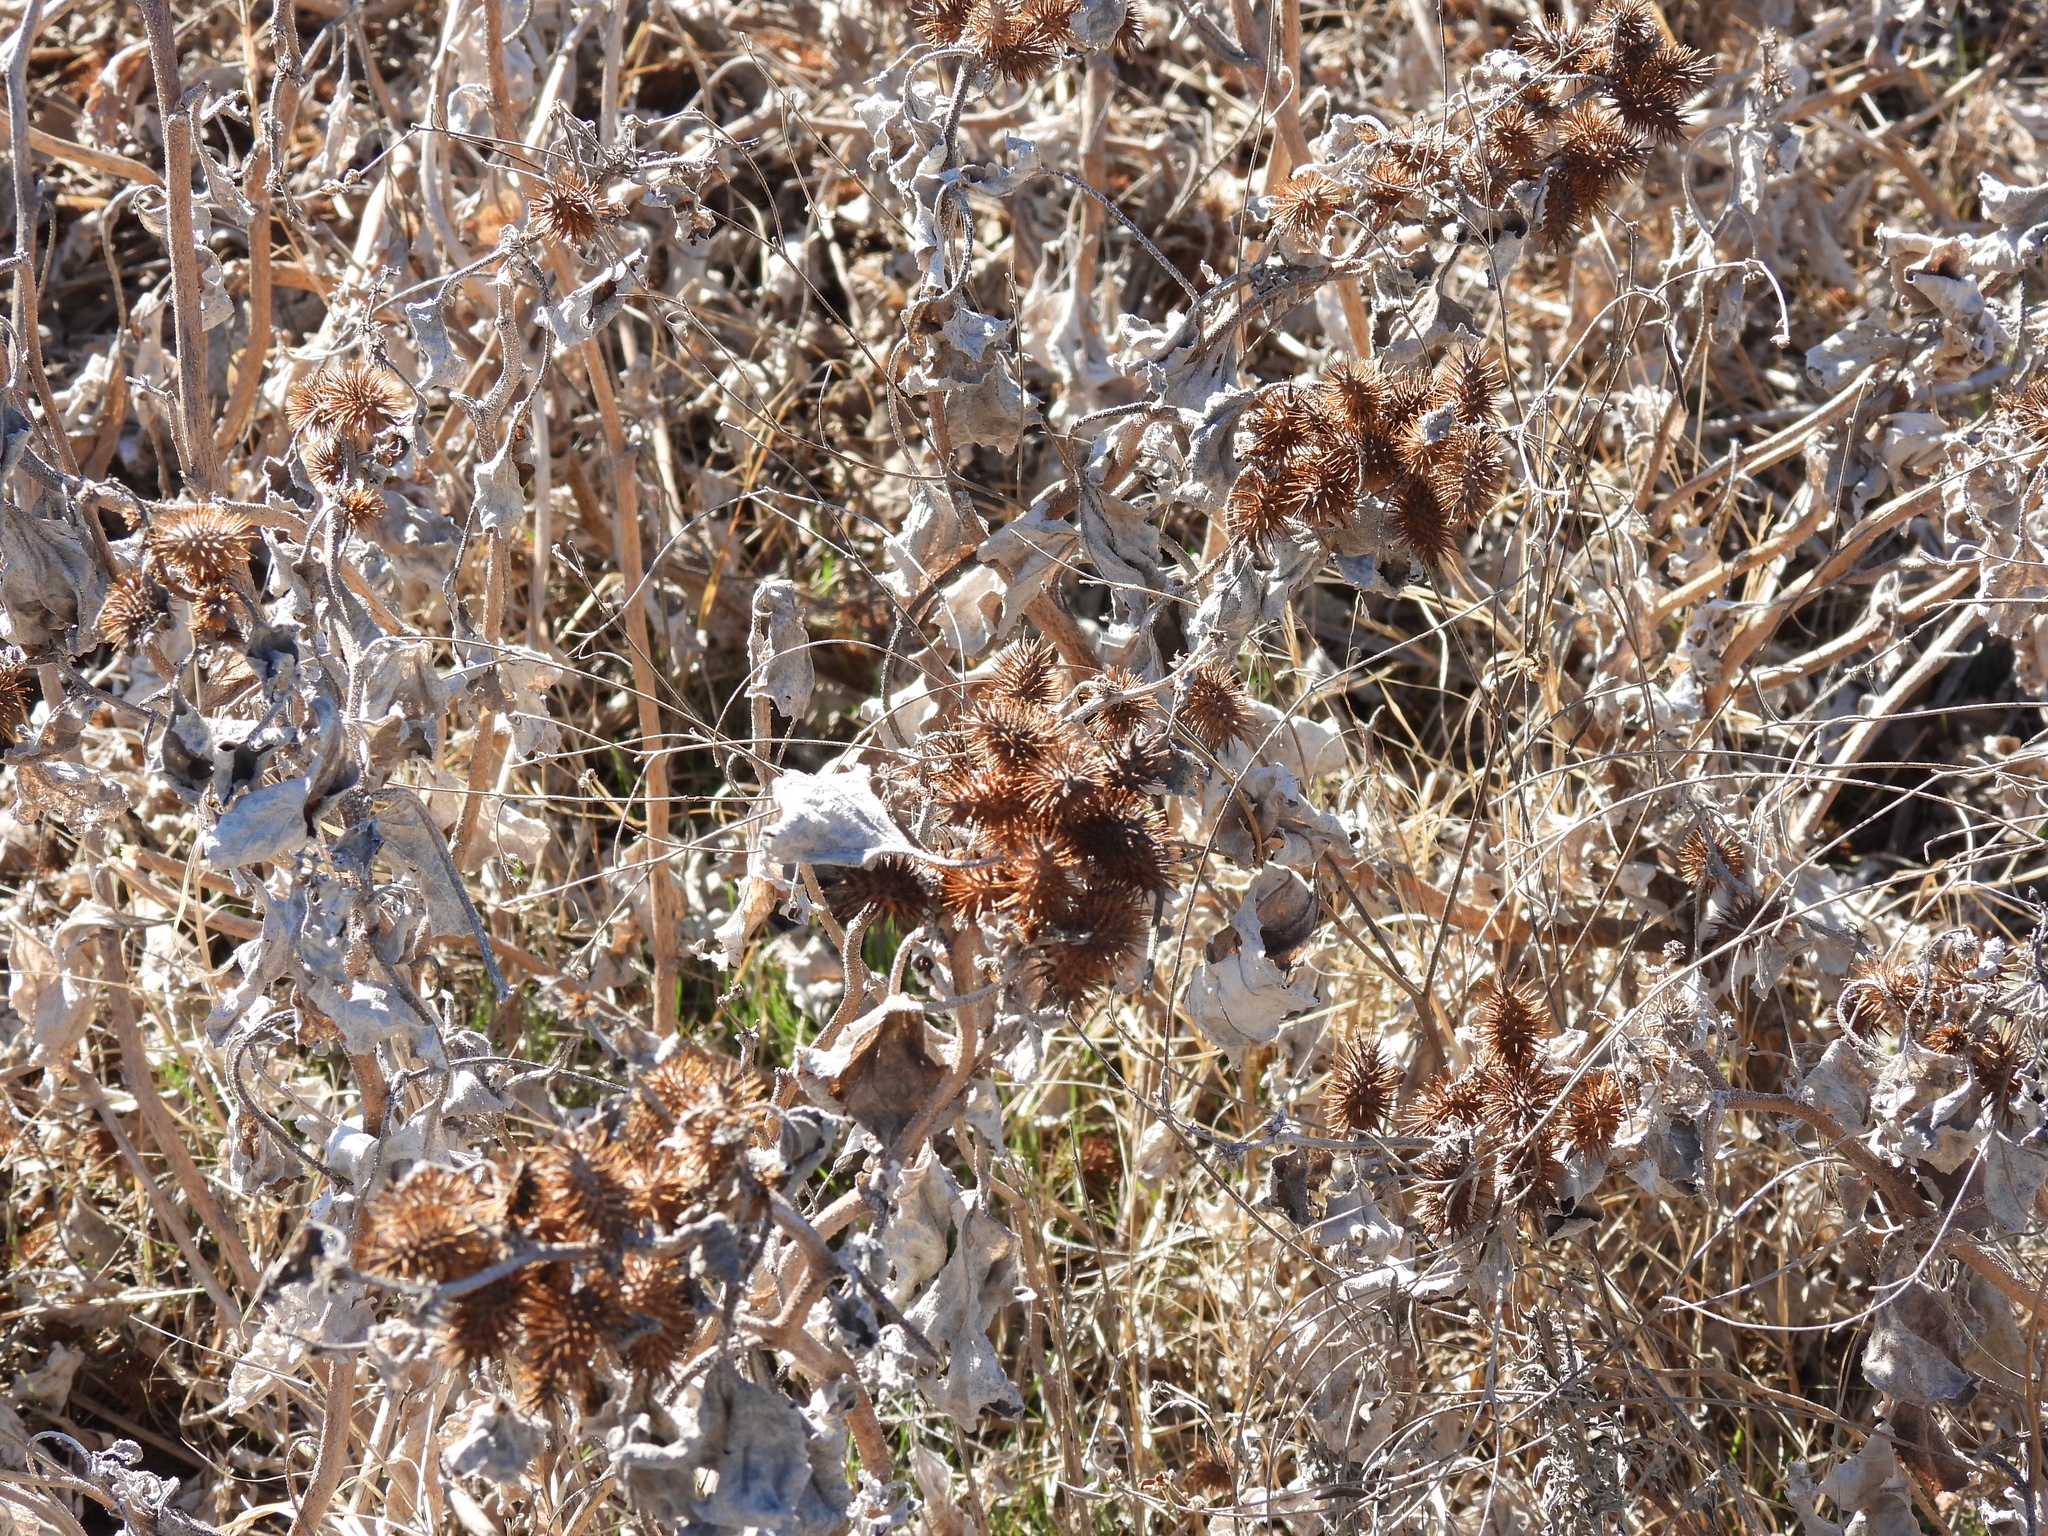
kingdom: Plantae
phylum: Tracheophyta
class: Magnoliopsida
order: Asterales
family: Asteraceae
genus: Xanthium
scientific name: Xanthium strumarium
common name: Rough cocklebur
